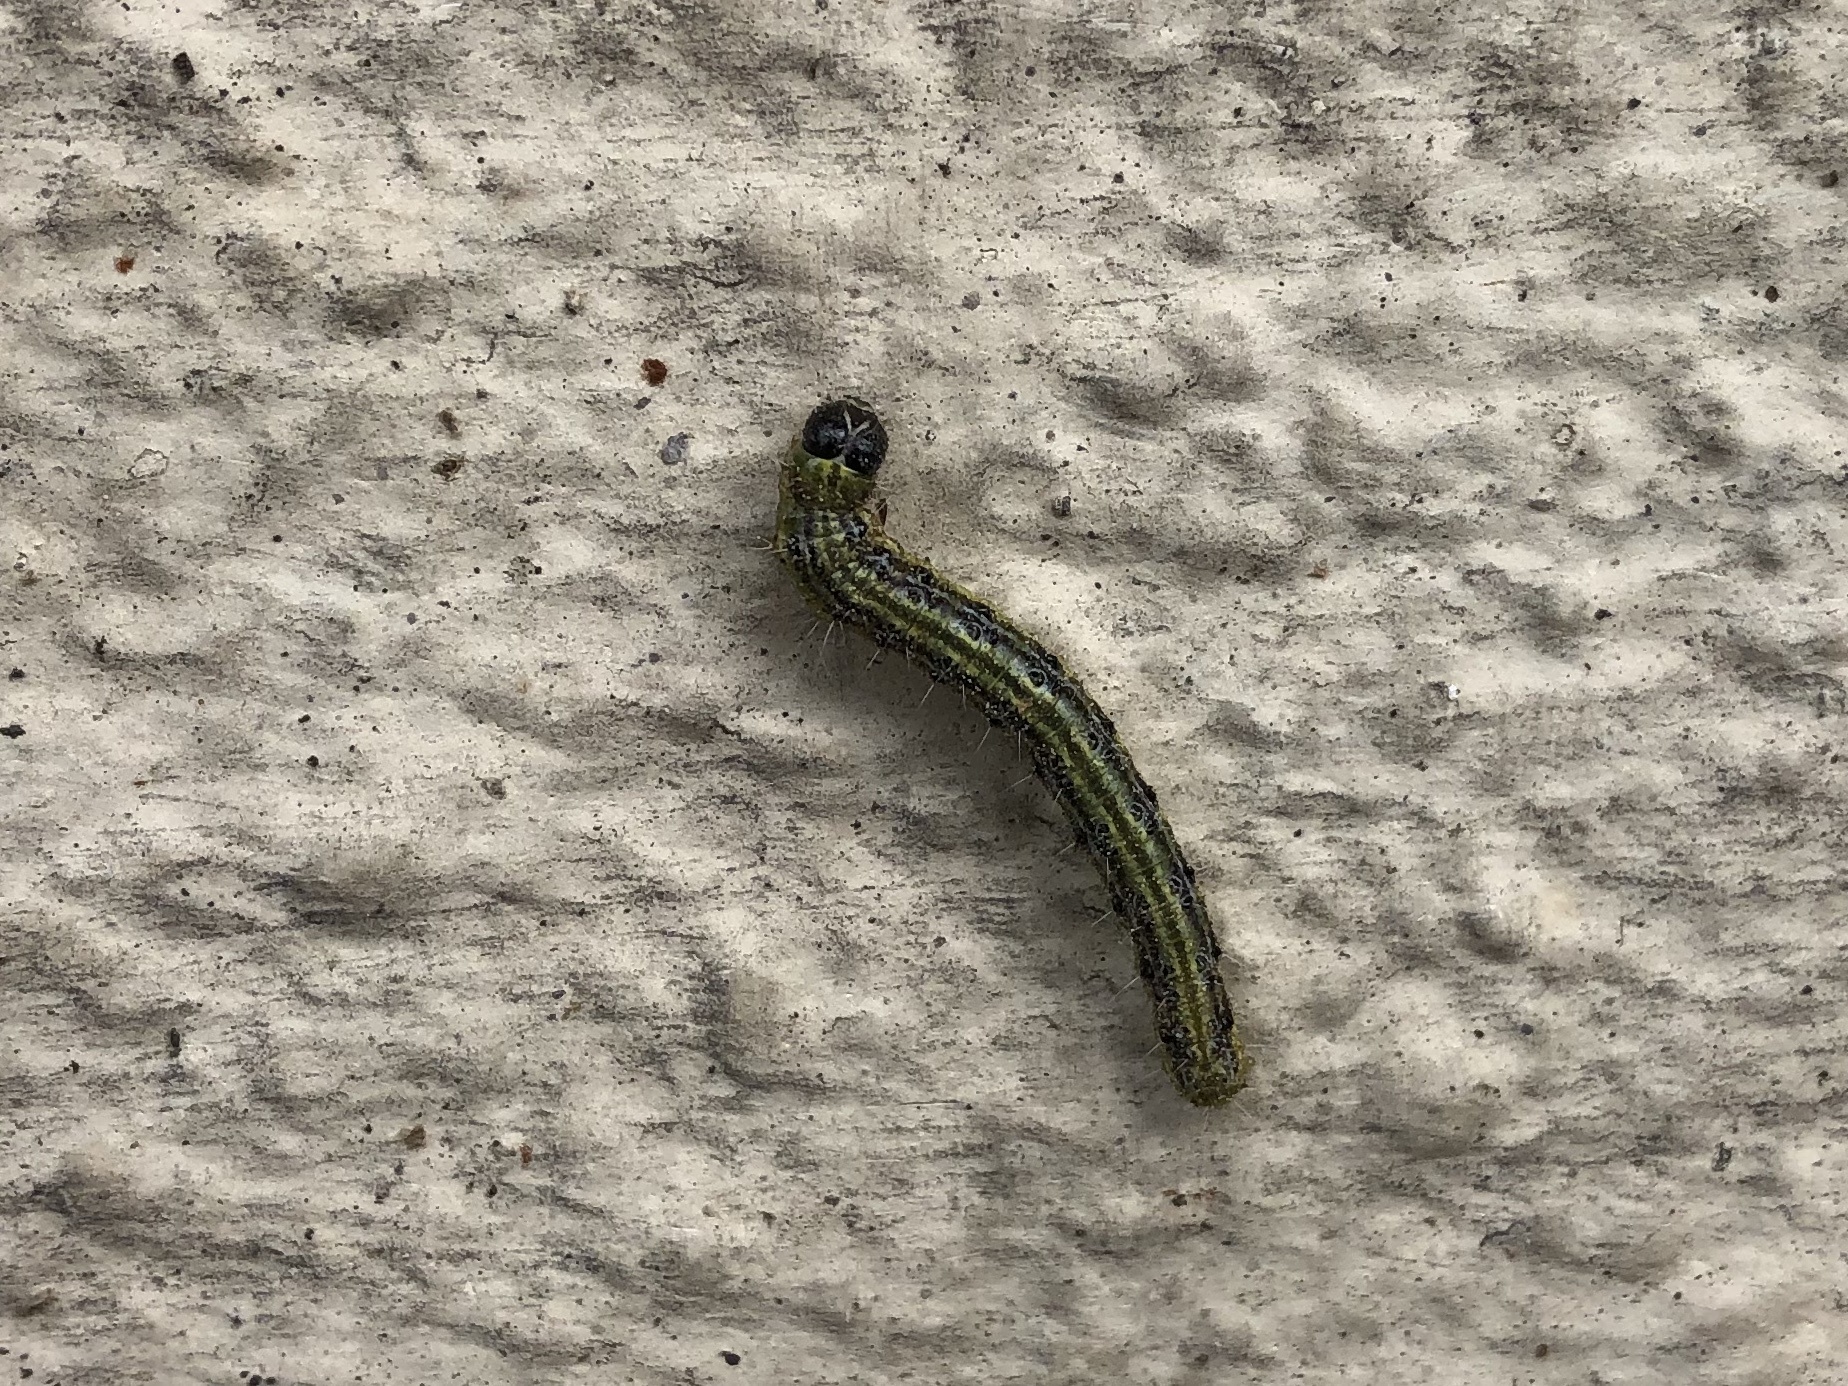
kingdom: Animalia
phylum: Arthropoda
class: Insecta
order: Lepidoptera
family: Crambidae
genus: Cydalima
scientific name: Cydalima perspectalis
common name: Box tree moth
